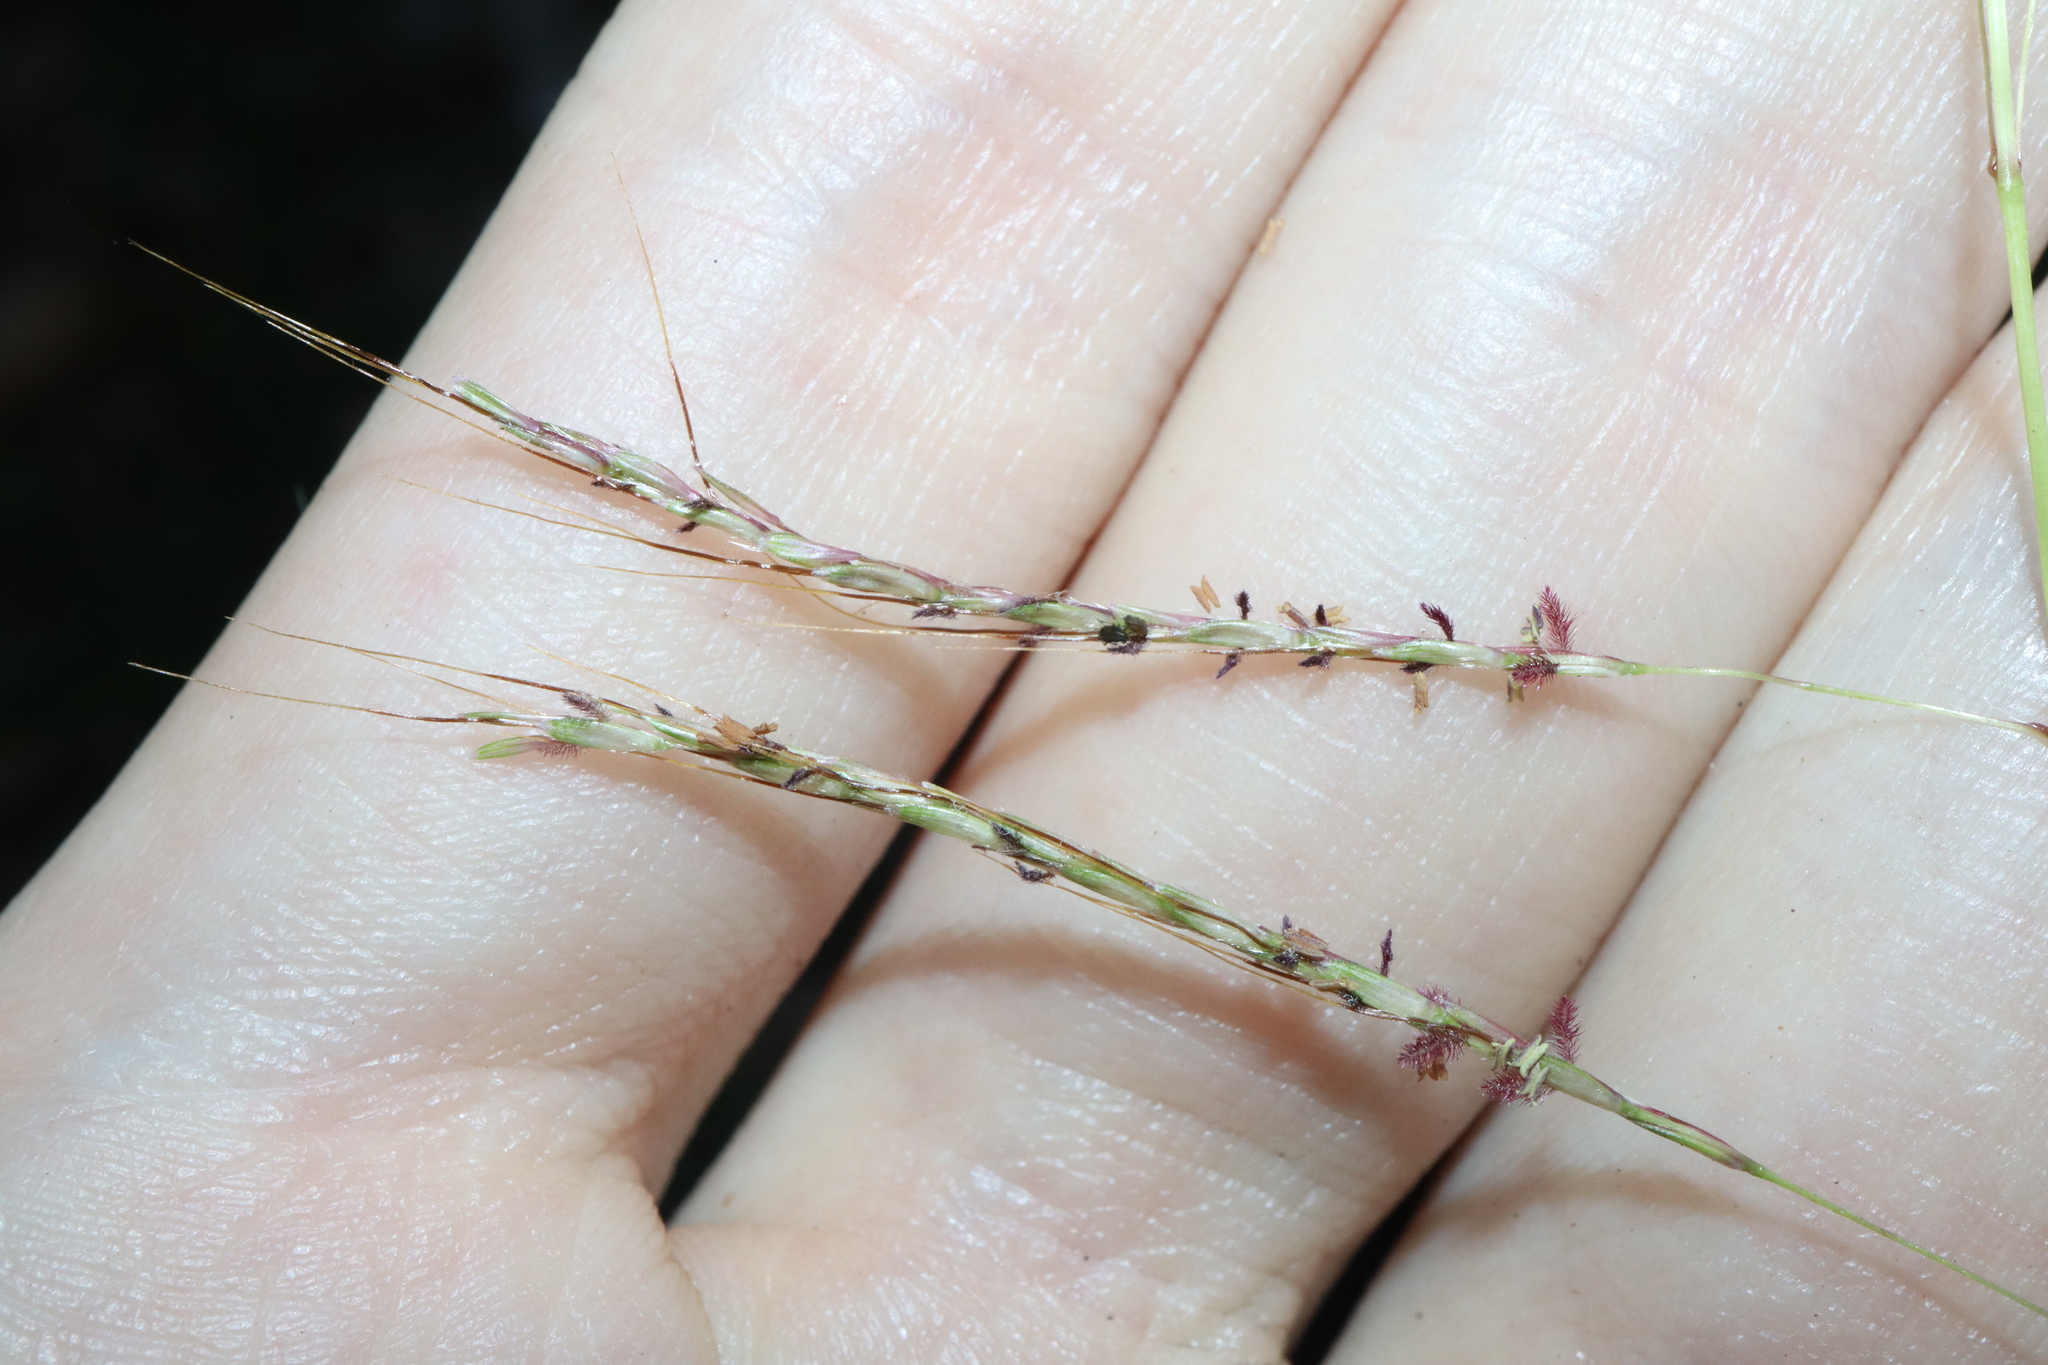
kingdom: Plantae
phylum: Tracheophyta
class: Liliopsida
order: Poales
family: Poaceae
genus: Bothriochloa
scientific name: Bothriochloa bladhii
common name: Caucasian bluestem
